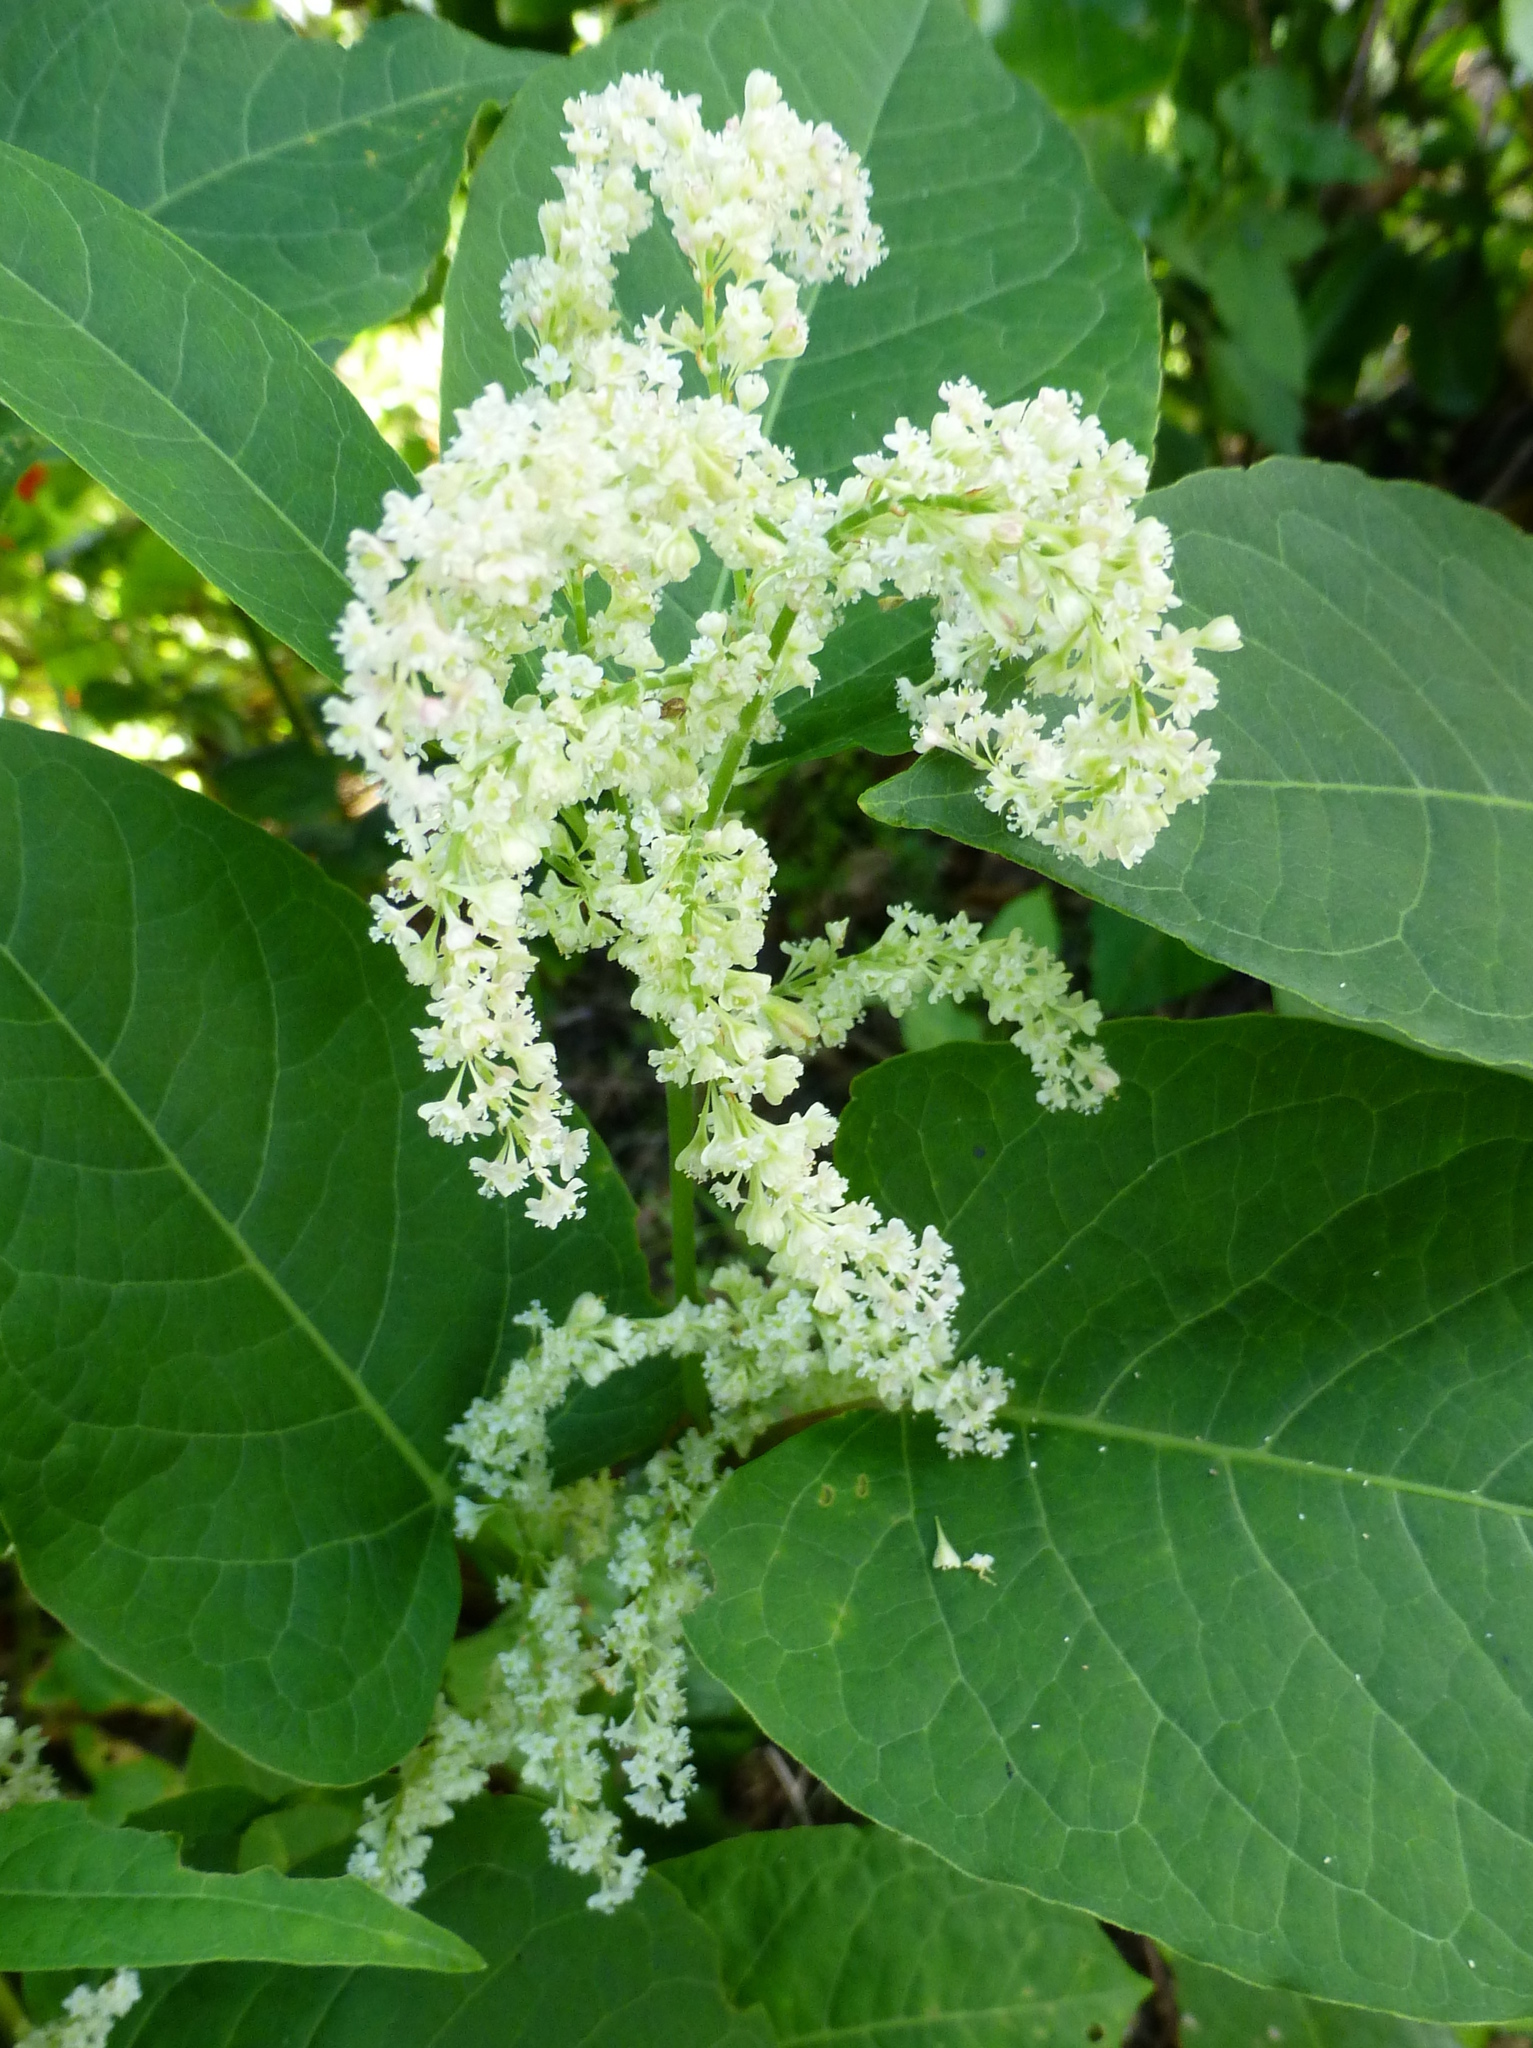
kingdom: Plantae
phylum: Tracheophyta
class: Magnoliopsida
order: Caryophyllales
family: Polygonaceae
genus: Reynoutria
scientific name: Reynoutria japonica
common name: Japanese knotweed
